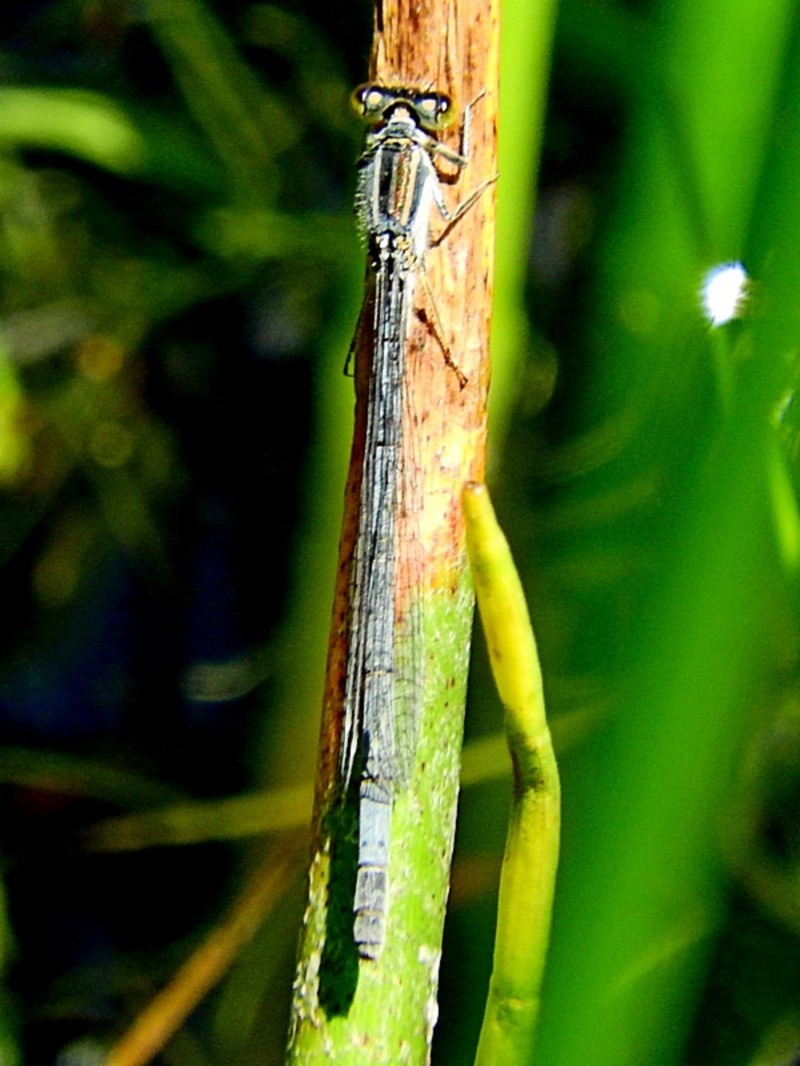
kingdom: Animalia
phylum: Arthropoda
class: Insecta
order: Odonata
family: Coenagrionidae
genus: Ischnura
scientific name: Ischnura heterosticta
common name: Common bluetail
